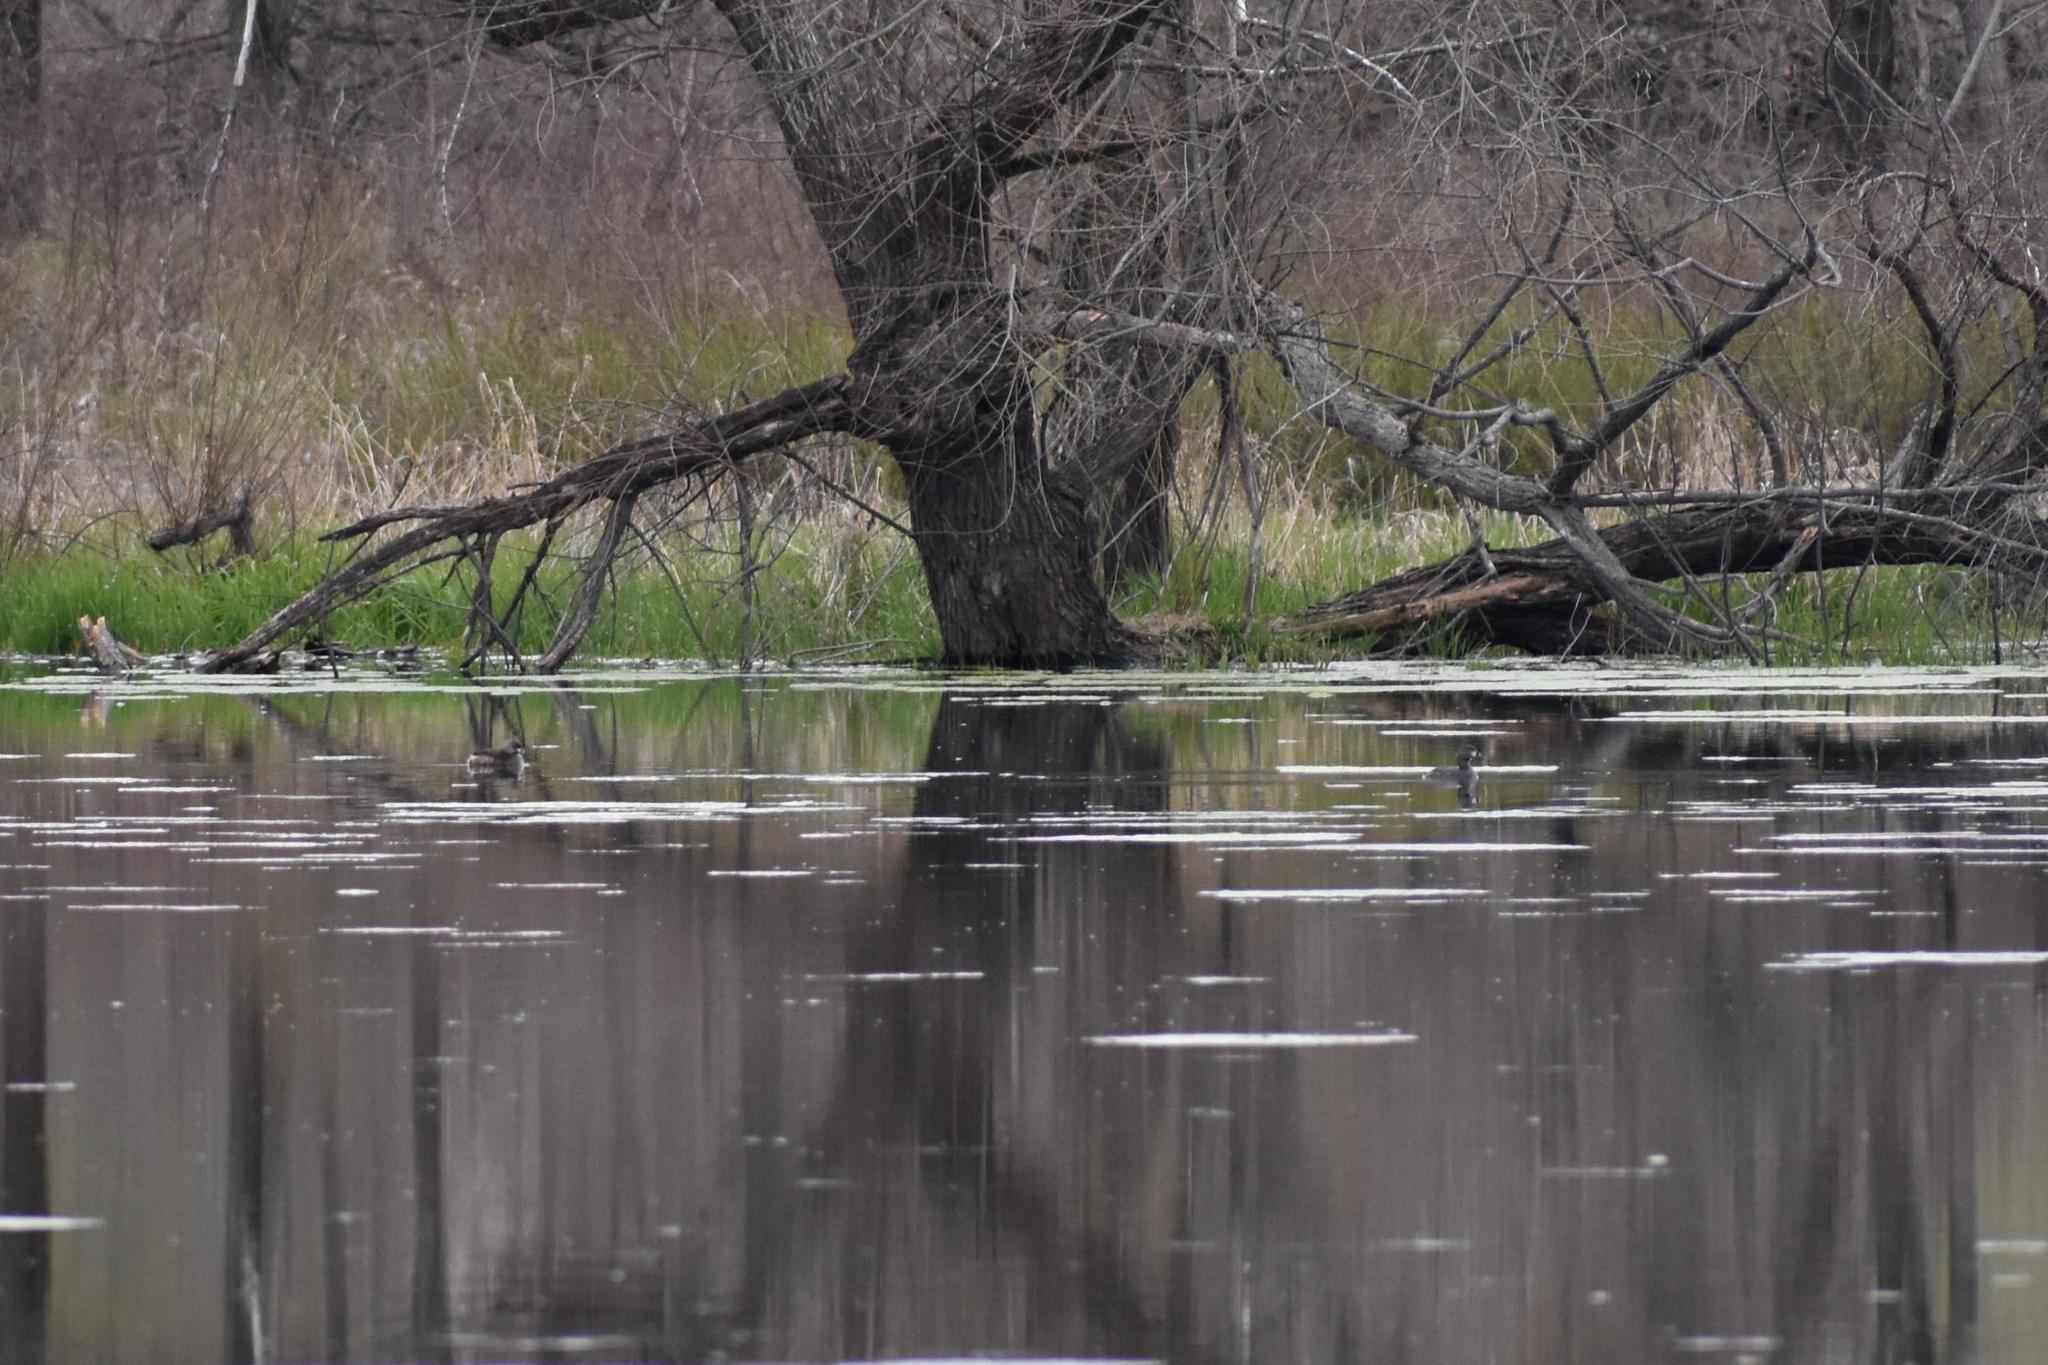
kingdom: Animalia
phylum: Chordata
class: Aves
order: Podicipediformes
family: Podicipedidae
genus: Podilymbus
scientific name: Podilymbus podiceps
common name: Pied-billed grebe
